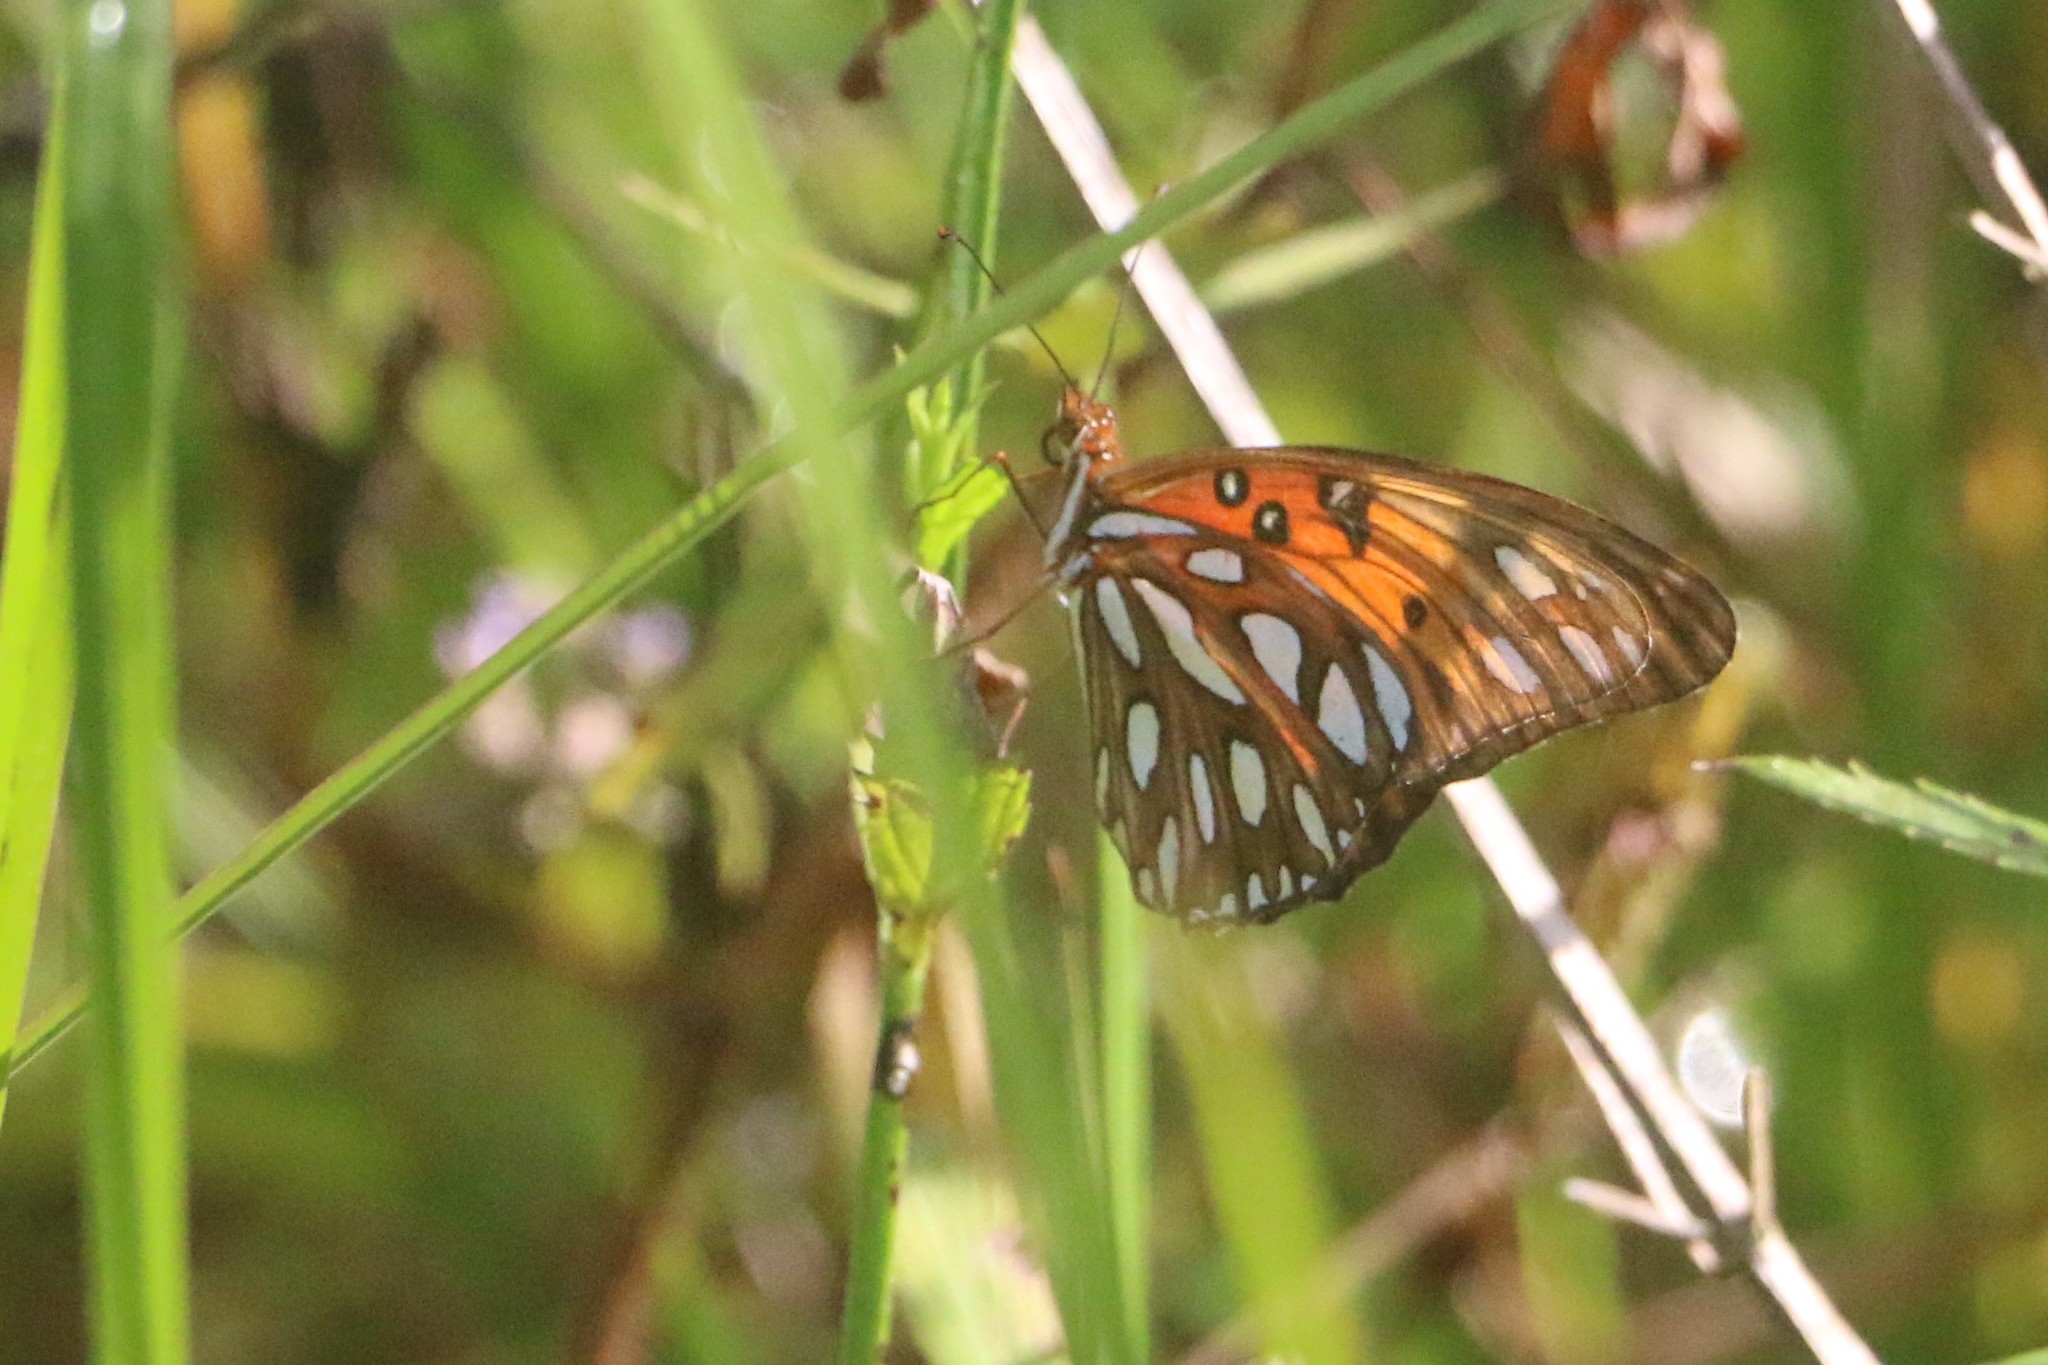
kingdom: Animalia
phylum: Arthropoda
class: Insecta
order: Lepidoptera
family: Nymphalidae
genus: Dione
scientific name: Dione vanillae
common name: Gulf fritillary
